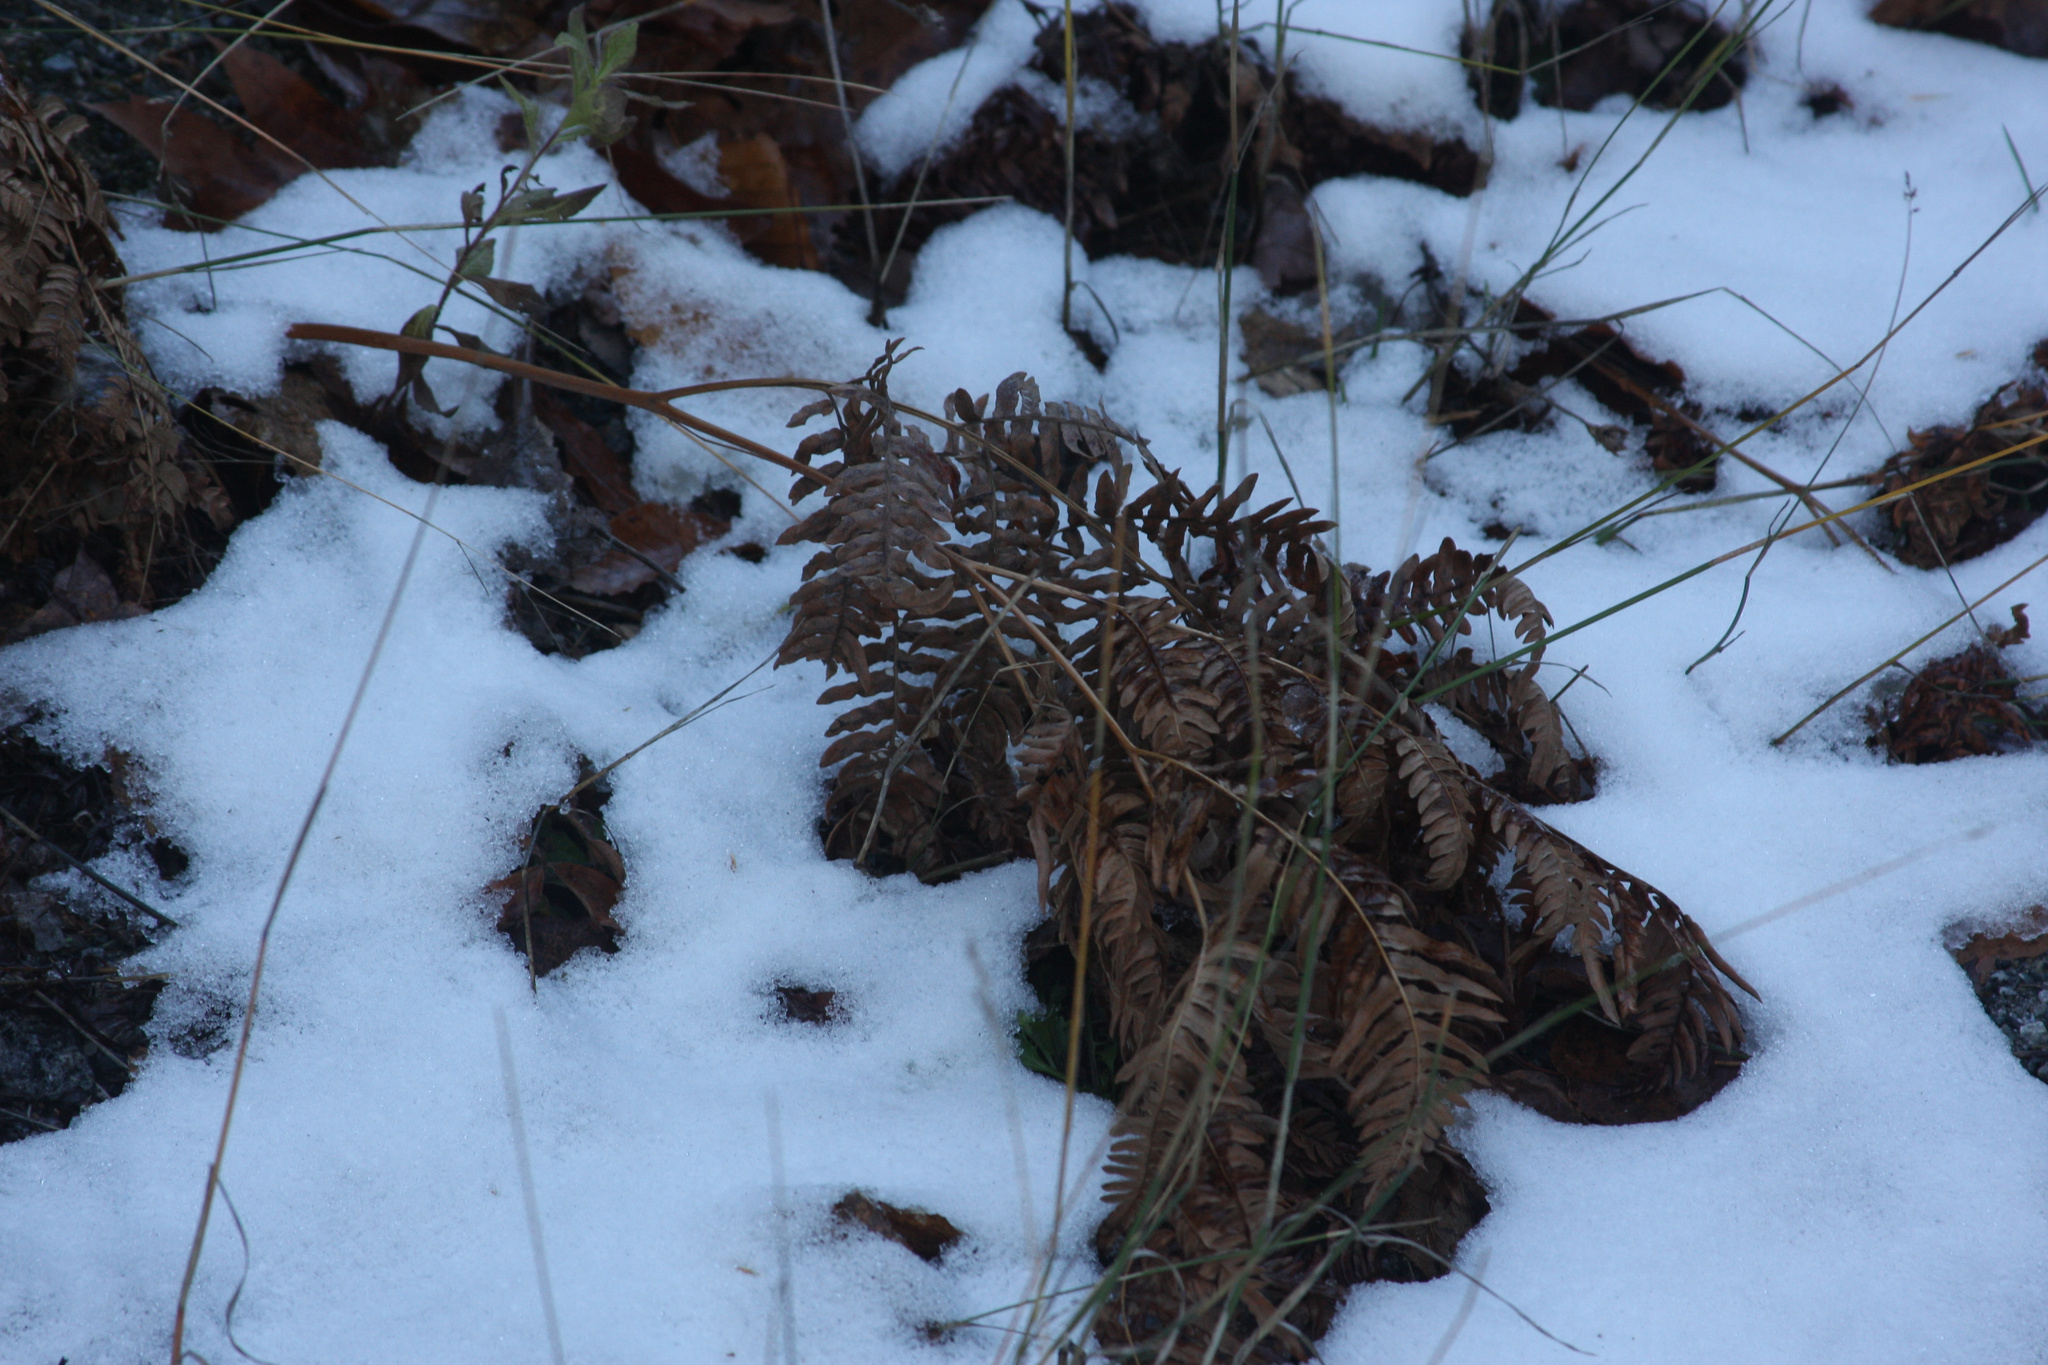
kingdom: Plantae
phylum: Tracheophyta
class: Polypodiopsida
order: Polypodiales
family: Dennstaedtiaceae
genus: Pteridium
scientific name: Pteridium aquilinum
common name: Bracken
